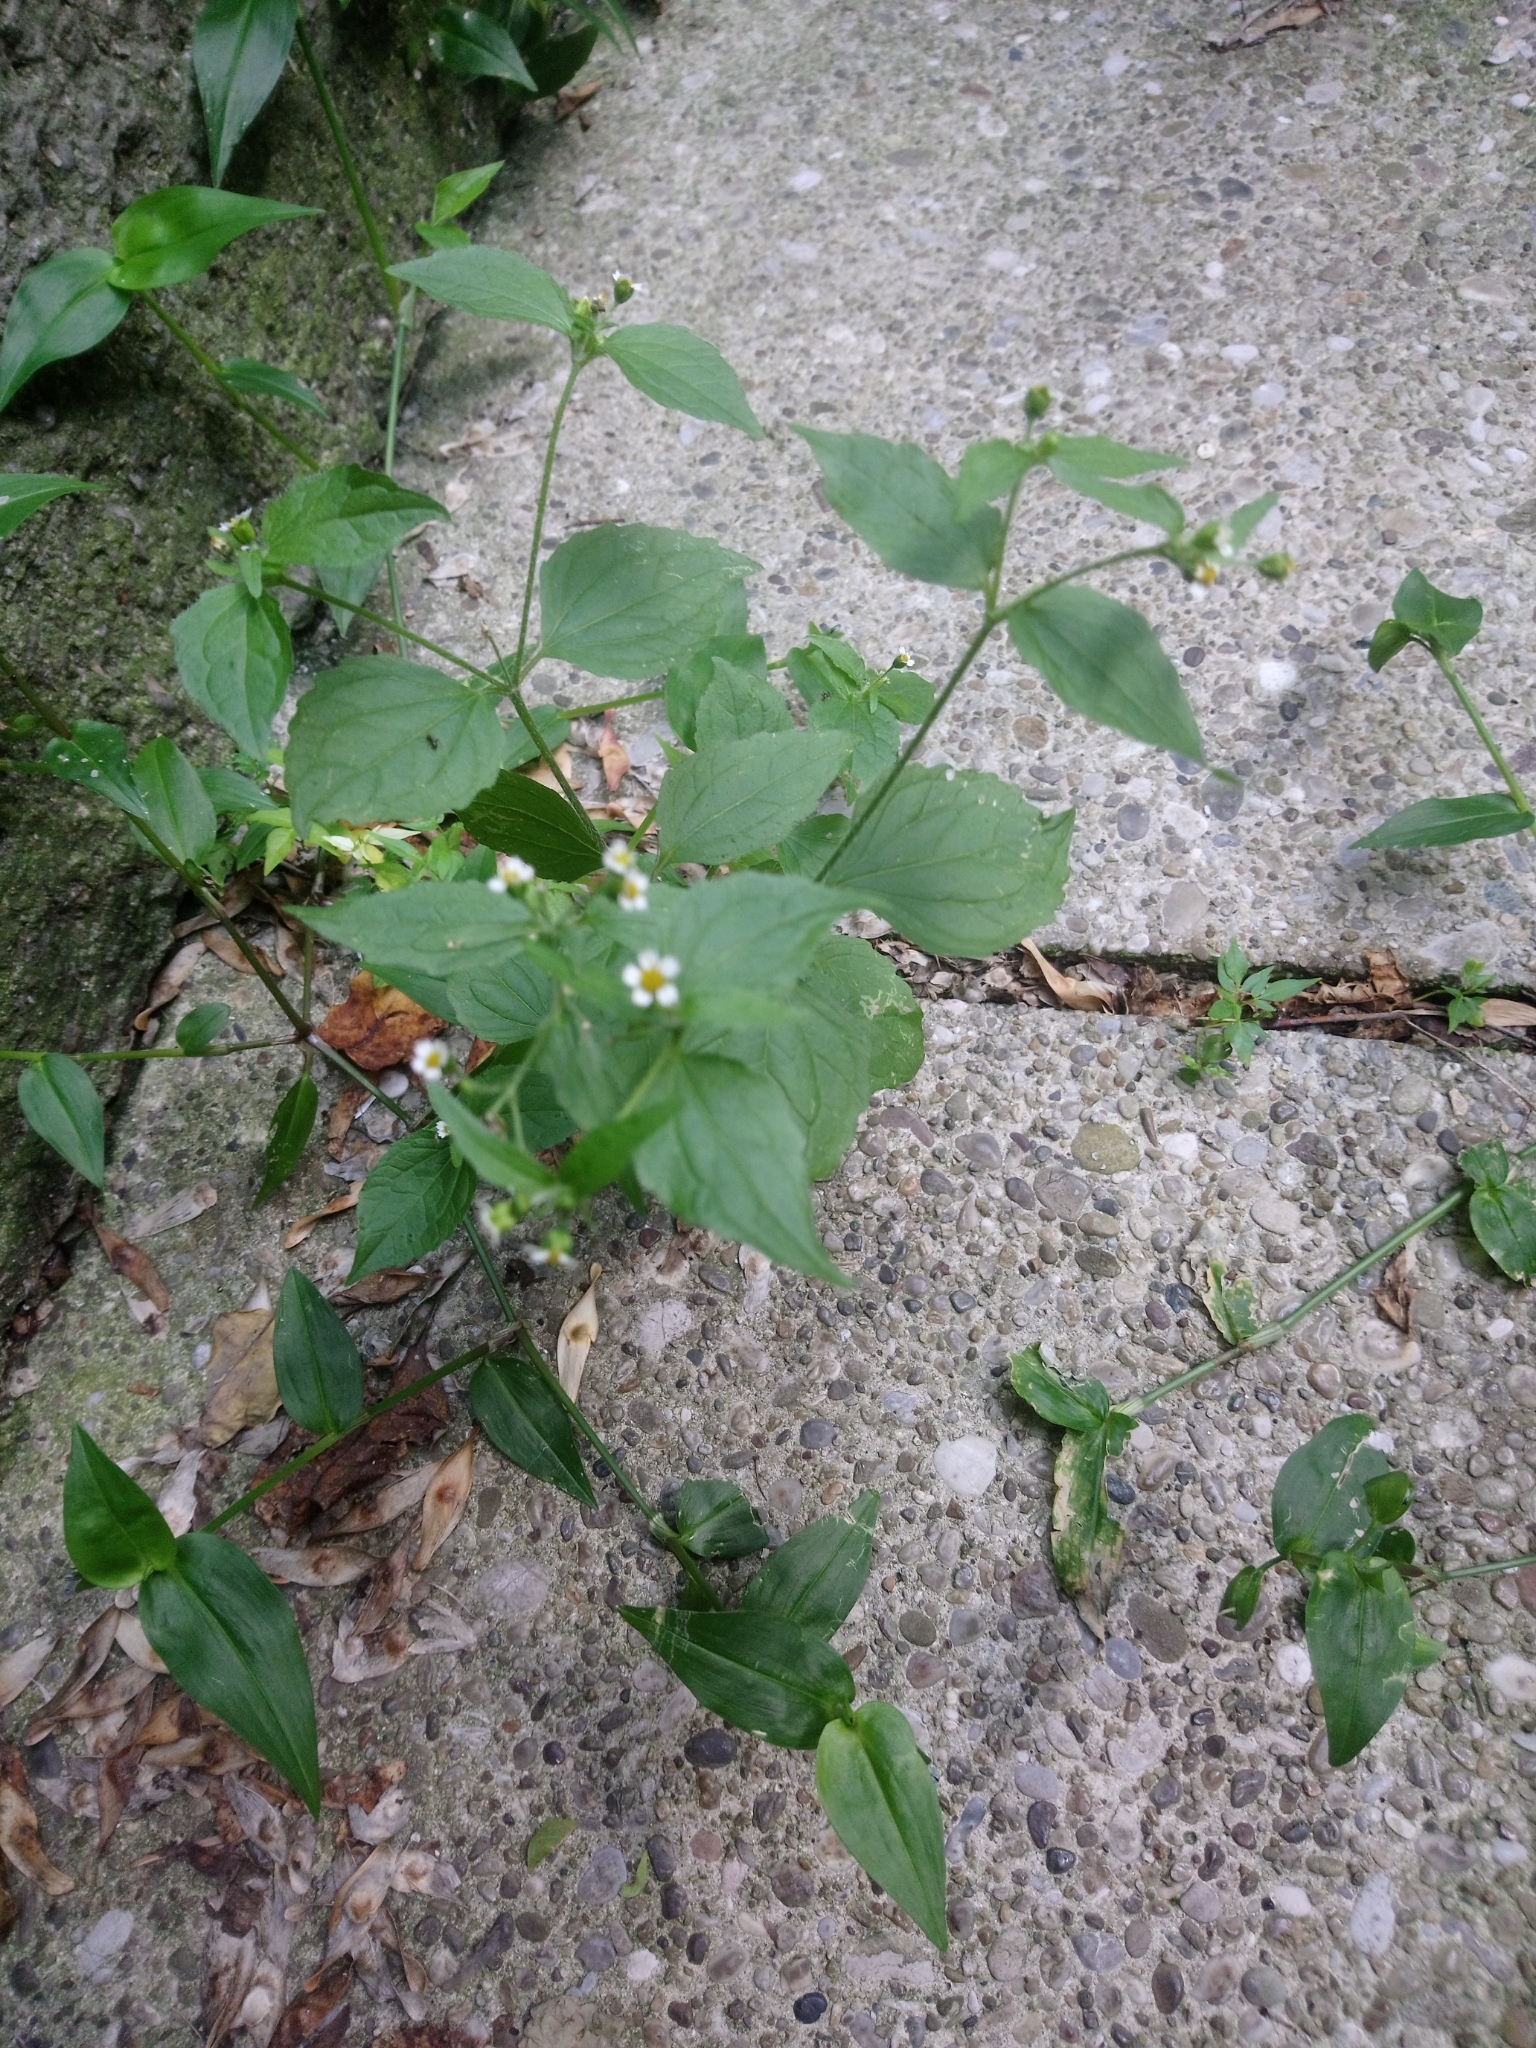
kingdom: Plantae
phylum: Tracheophyta
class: Magnoliopsida
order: Asterales
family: Asteraceae
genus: Galinsoga
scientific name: Galinsoga quadriradiata
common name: Shaggy soldier
